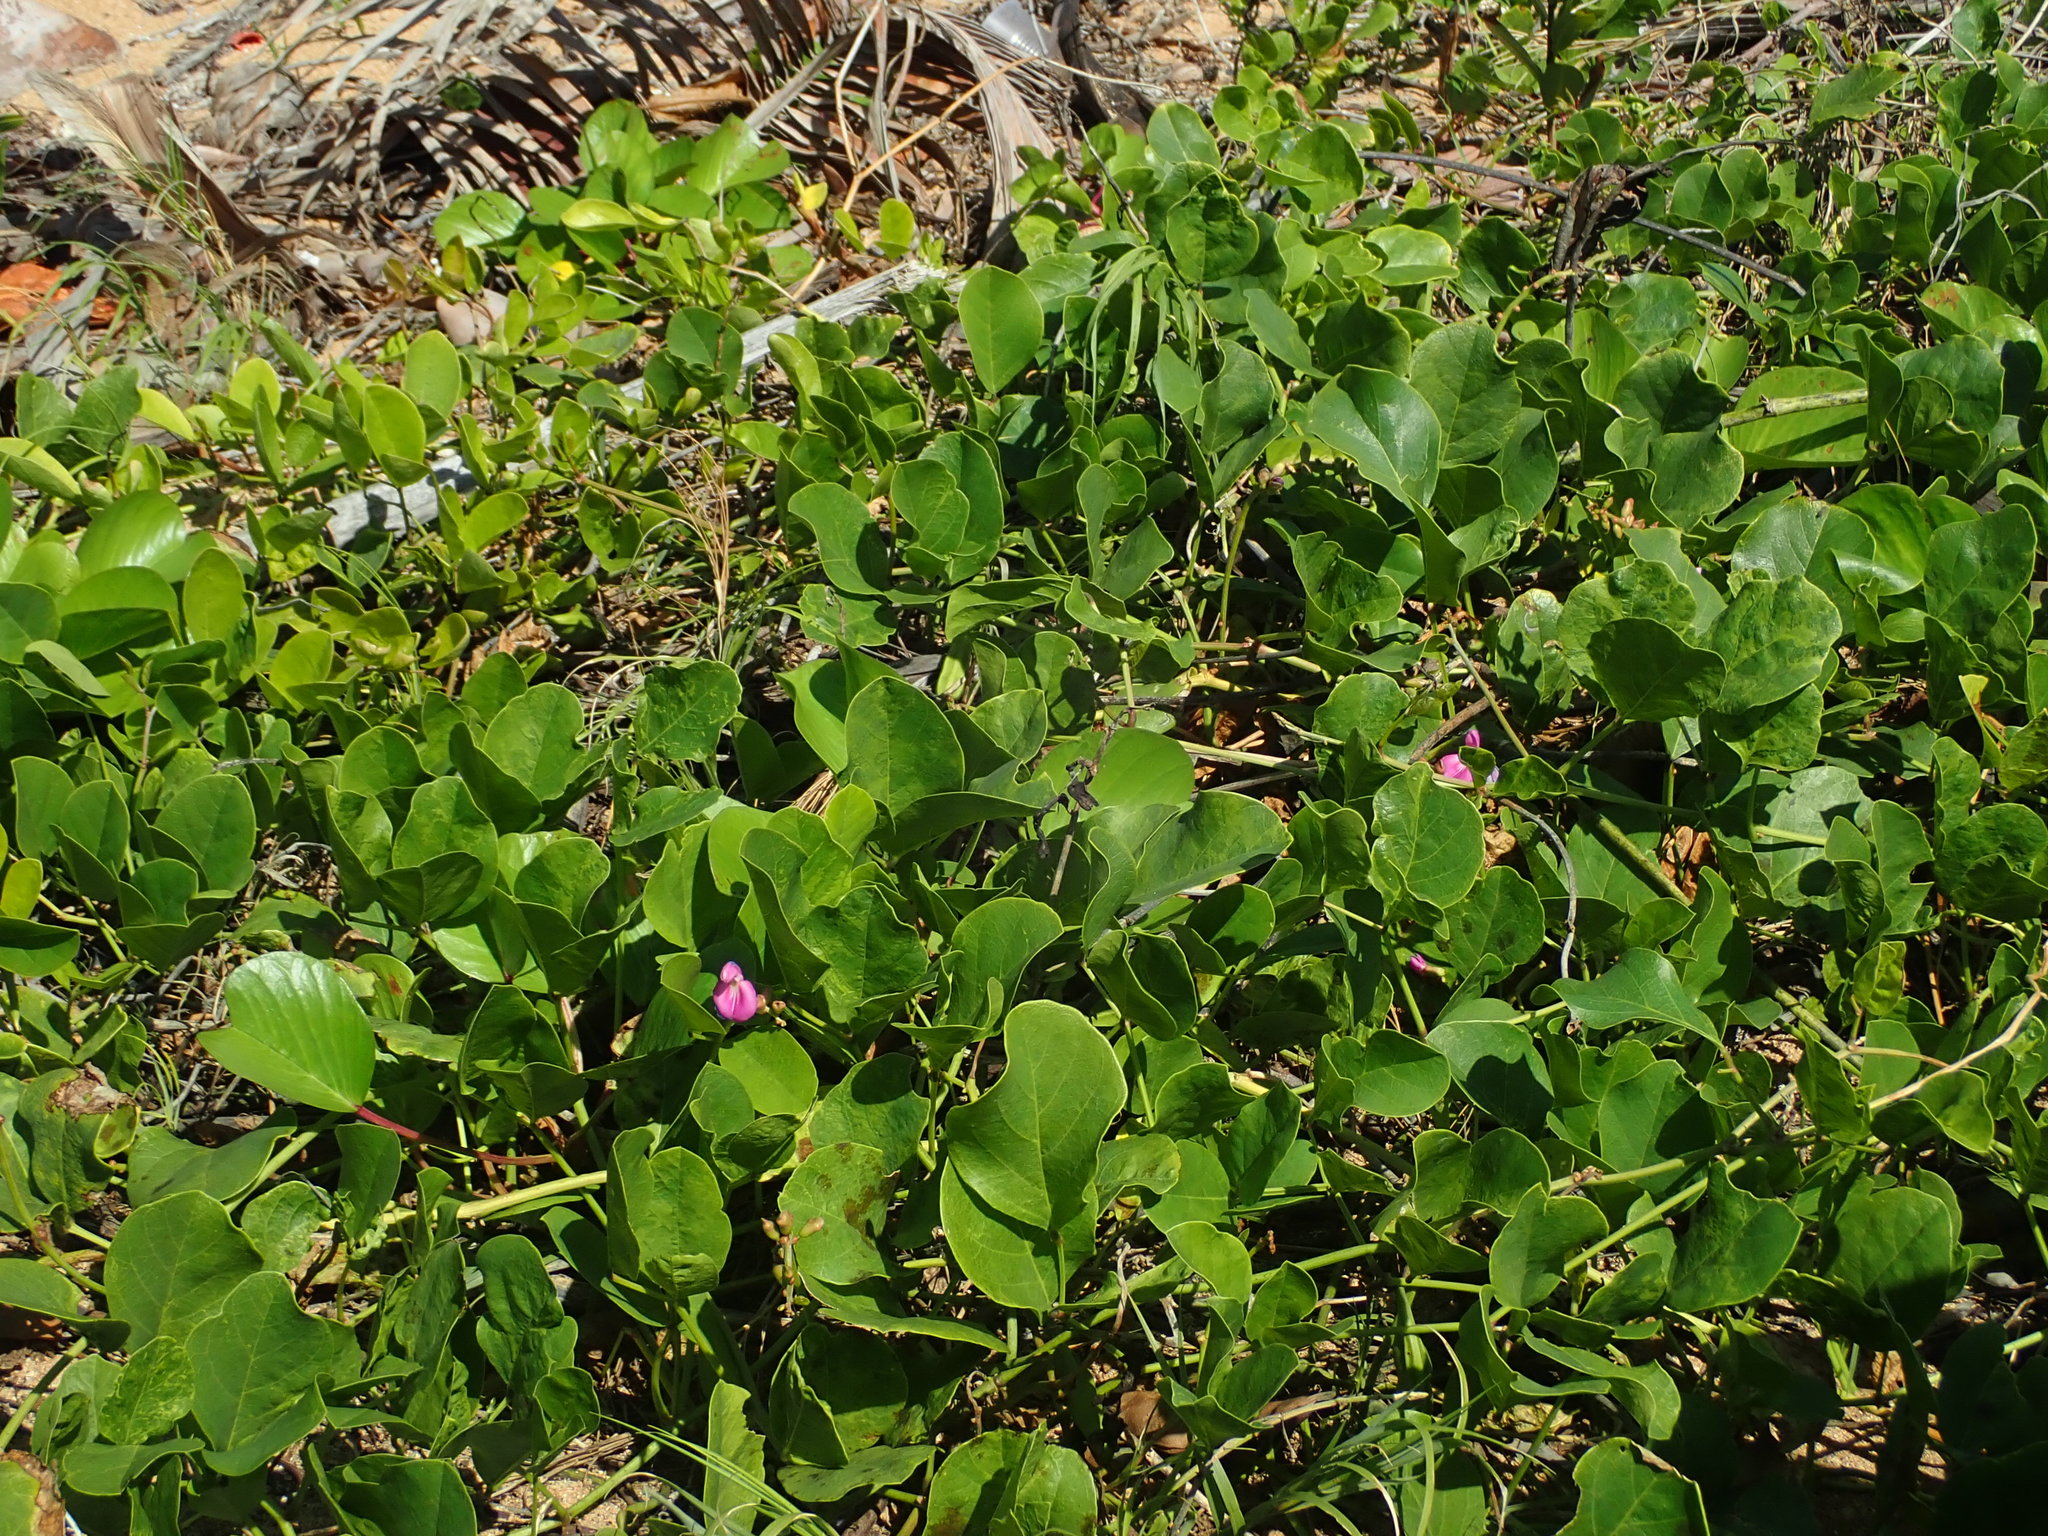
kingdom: Plantae
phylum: Tracheophyta
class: Magnoliopsida
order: Fabales
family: Fabaceae
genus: Canavalia
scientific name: Canavalia rosea
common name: Beach-bean
